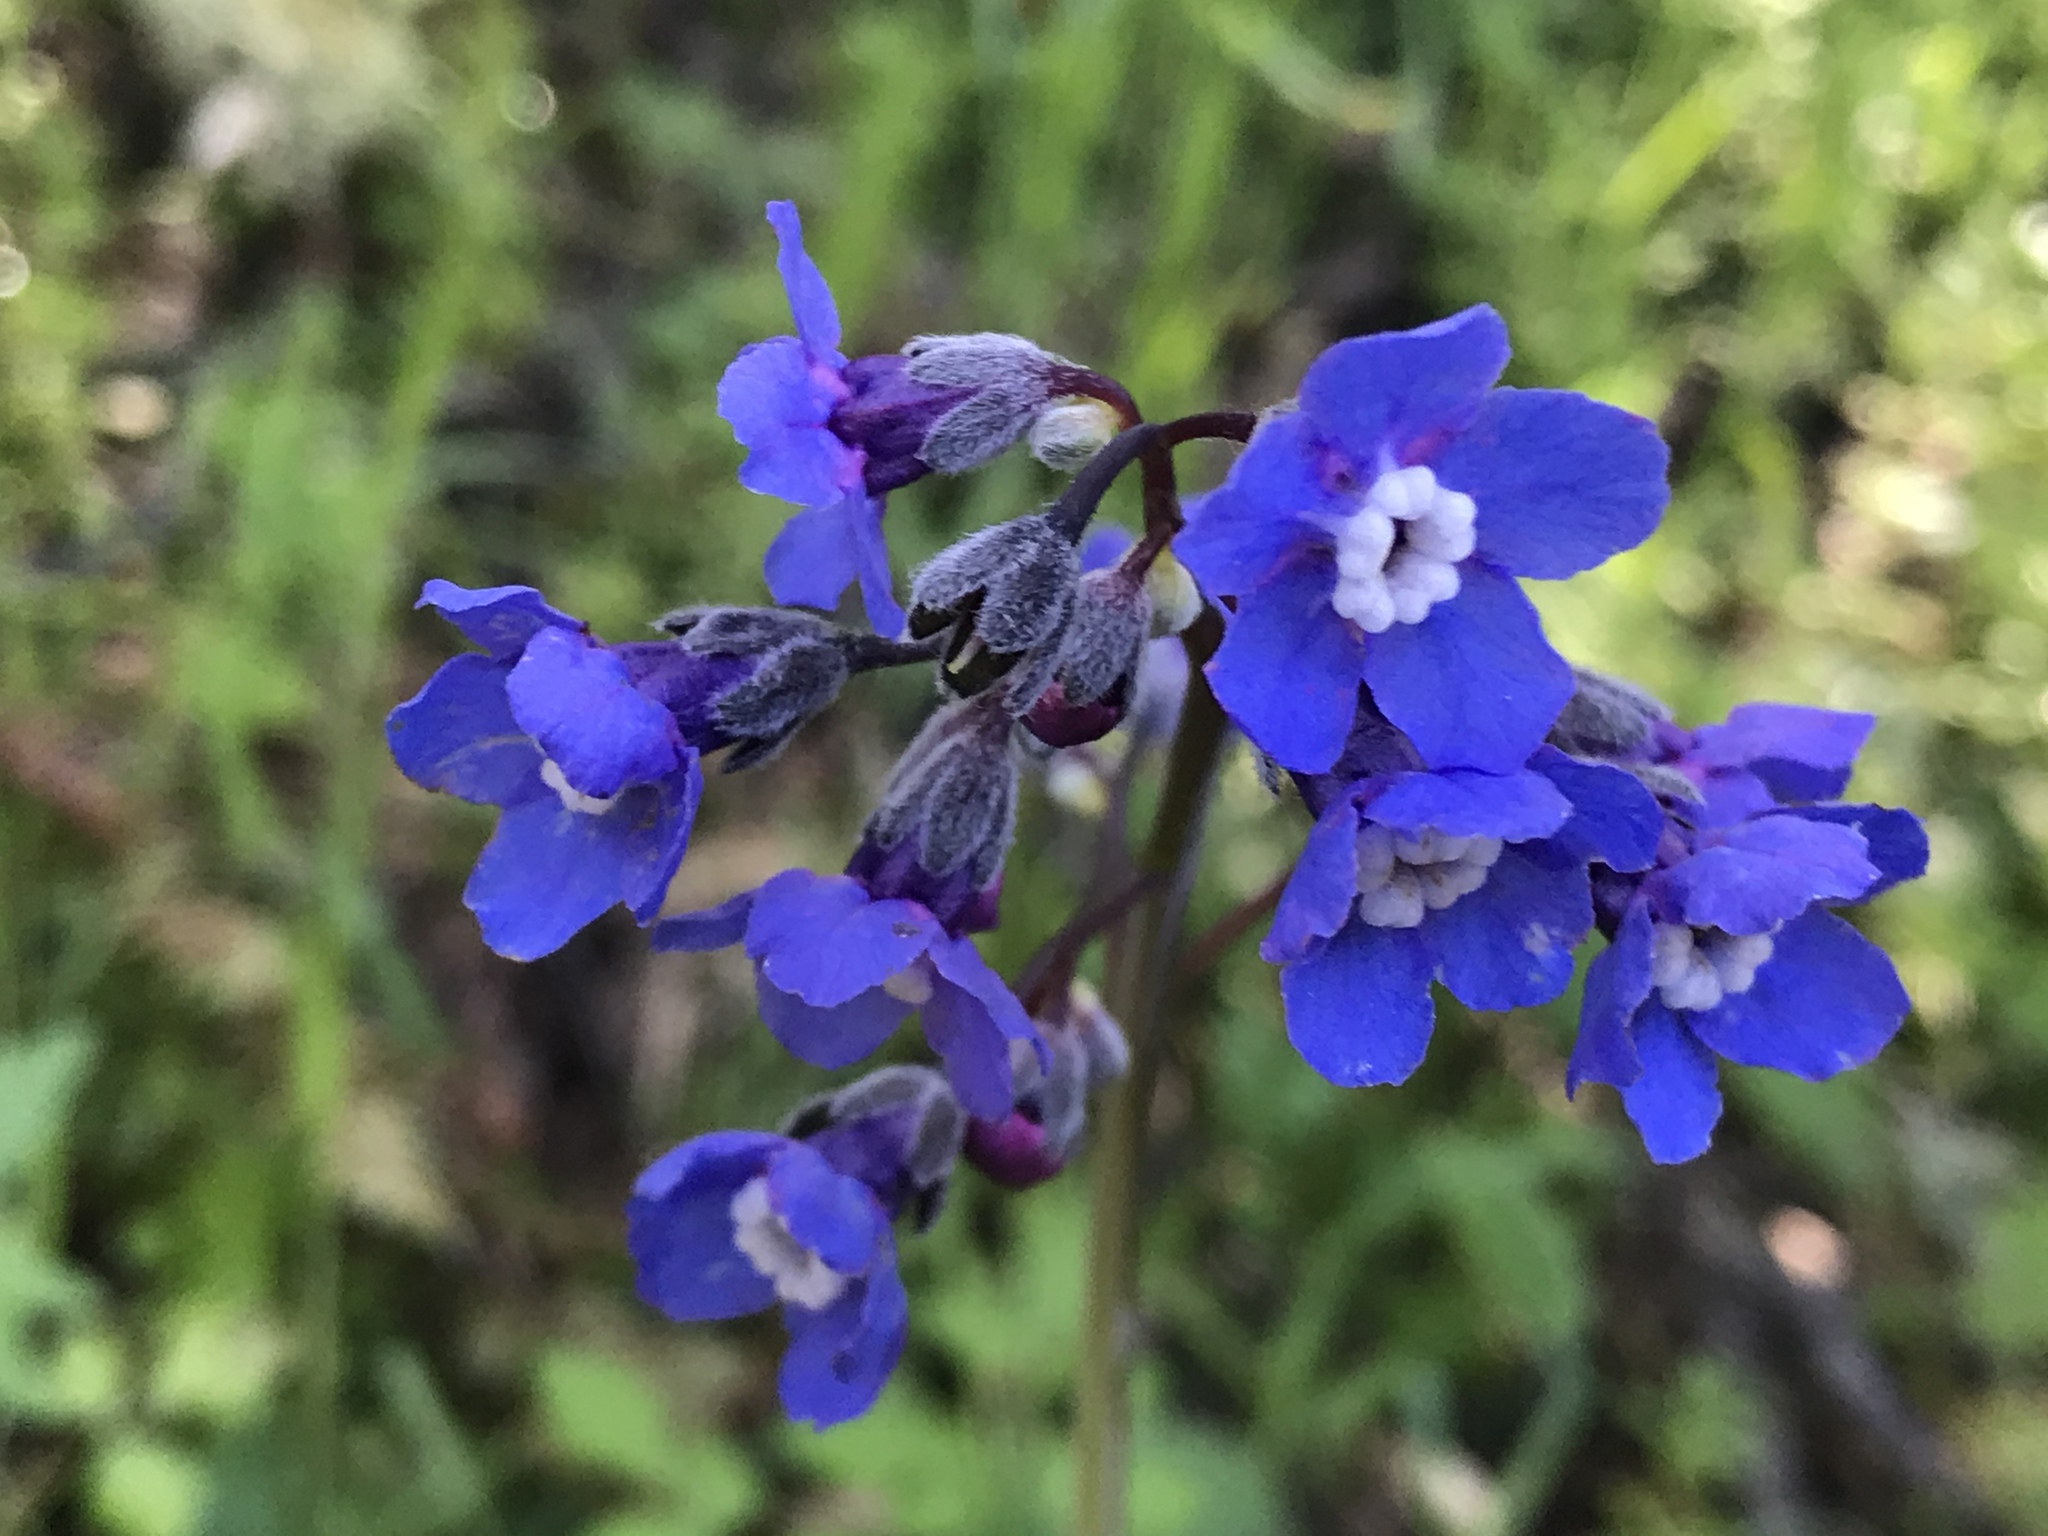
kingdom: Plantae
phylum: Tracheophyta
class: Magnoliopsida
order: Boraginales
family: Boraginaceae
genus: Adelinia
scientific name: Adelinia grande
